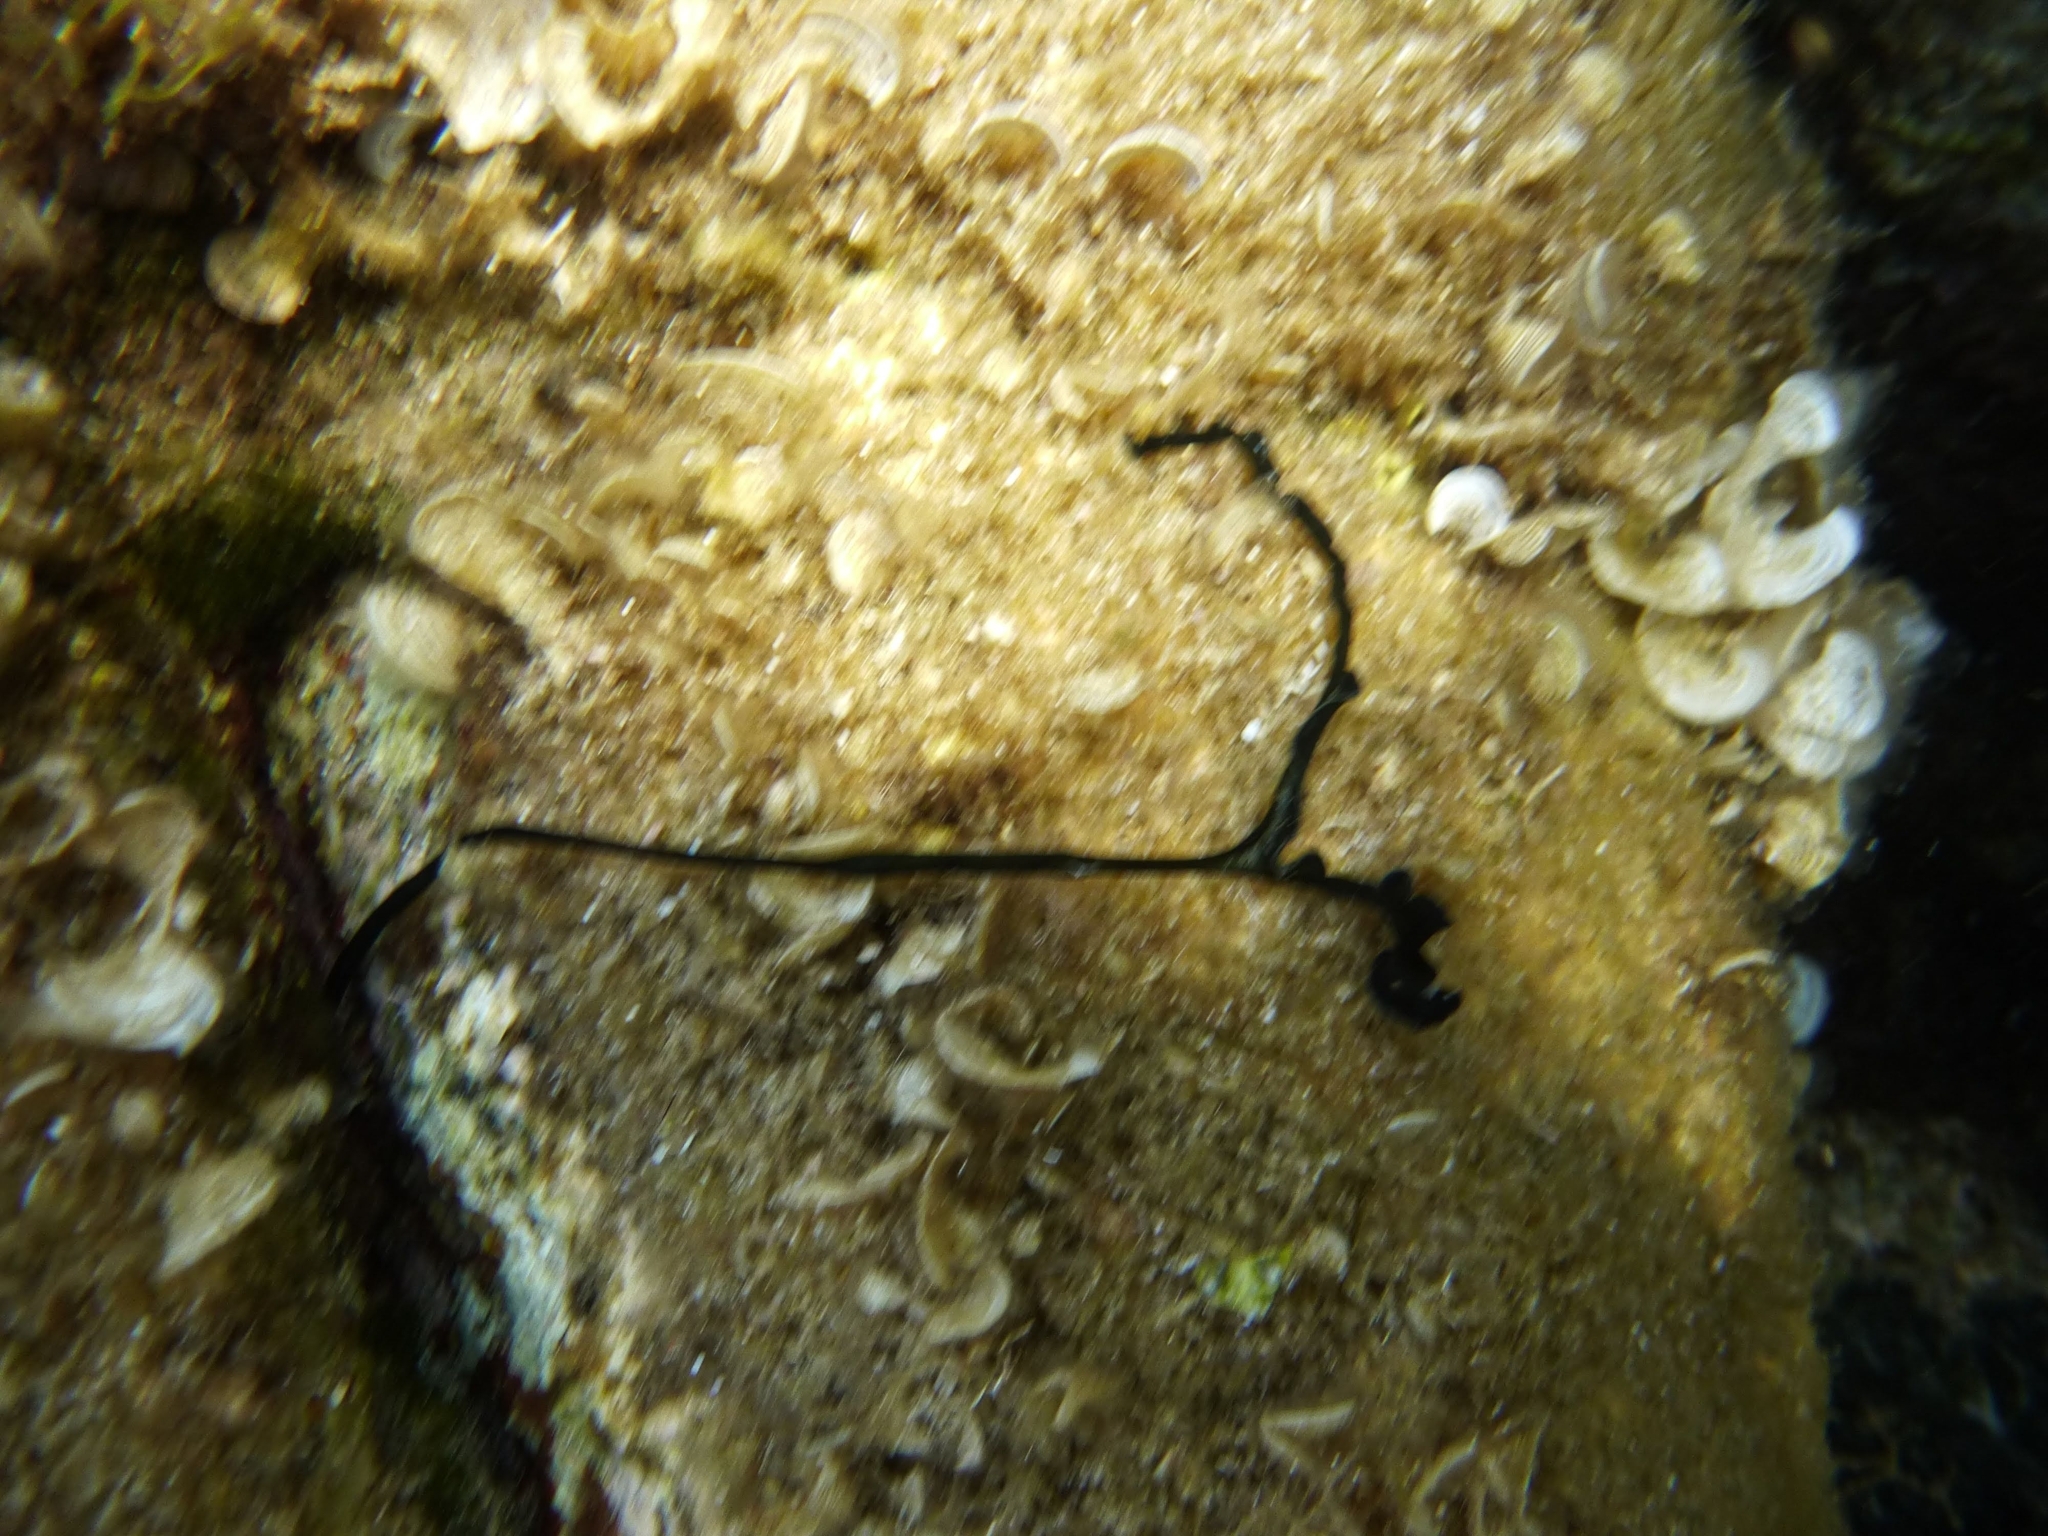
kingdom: Animalia
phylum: Annelida
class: Polychaeta
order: Echiuroidea
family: Bonelliidae
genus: Bonellia
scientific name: Bonellia viridis
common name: Green spoon worm
